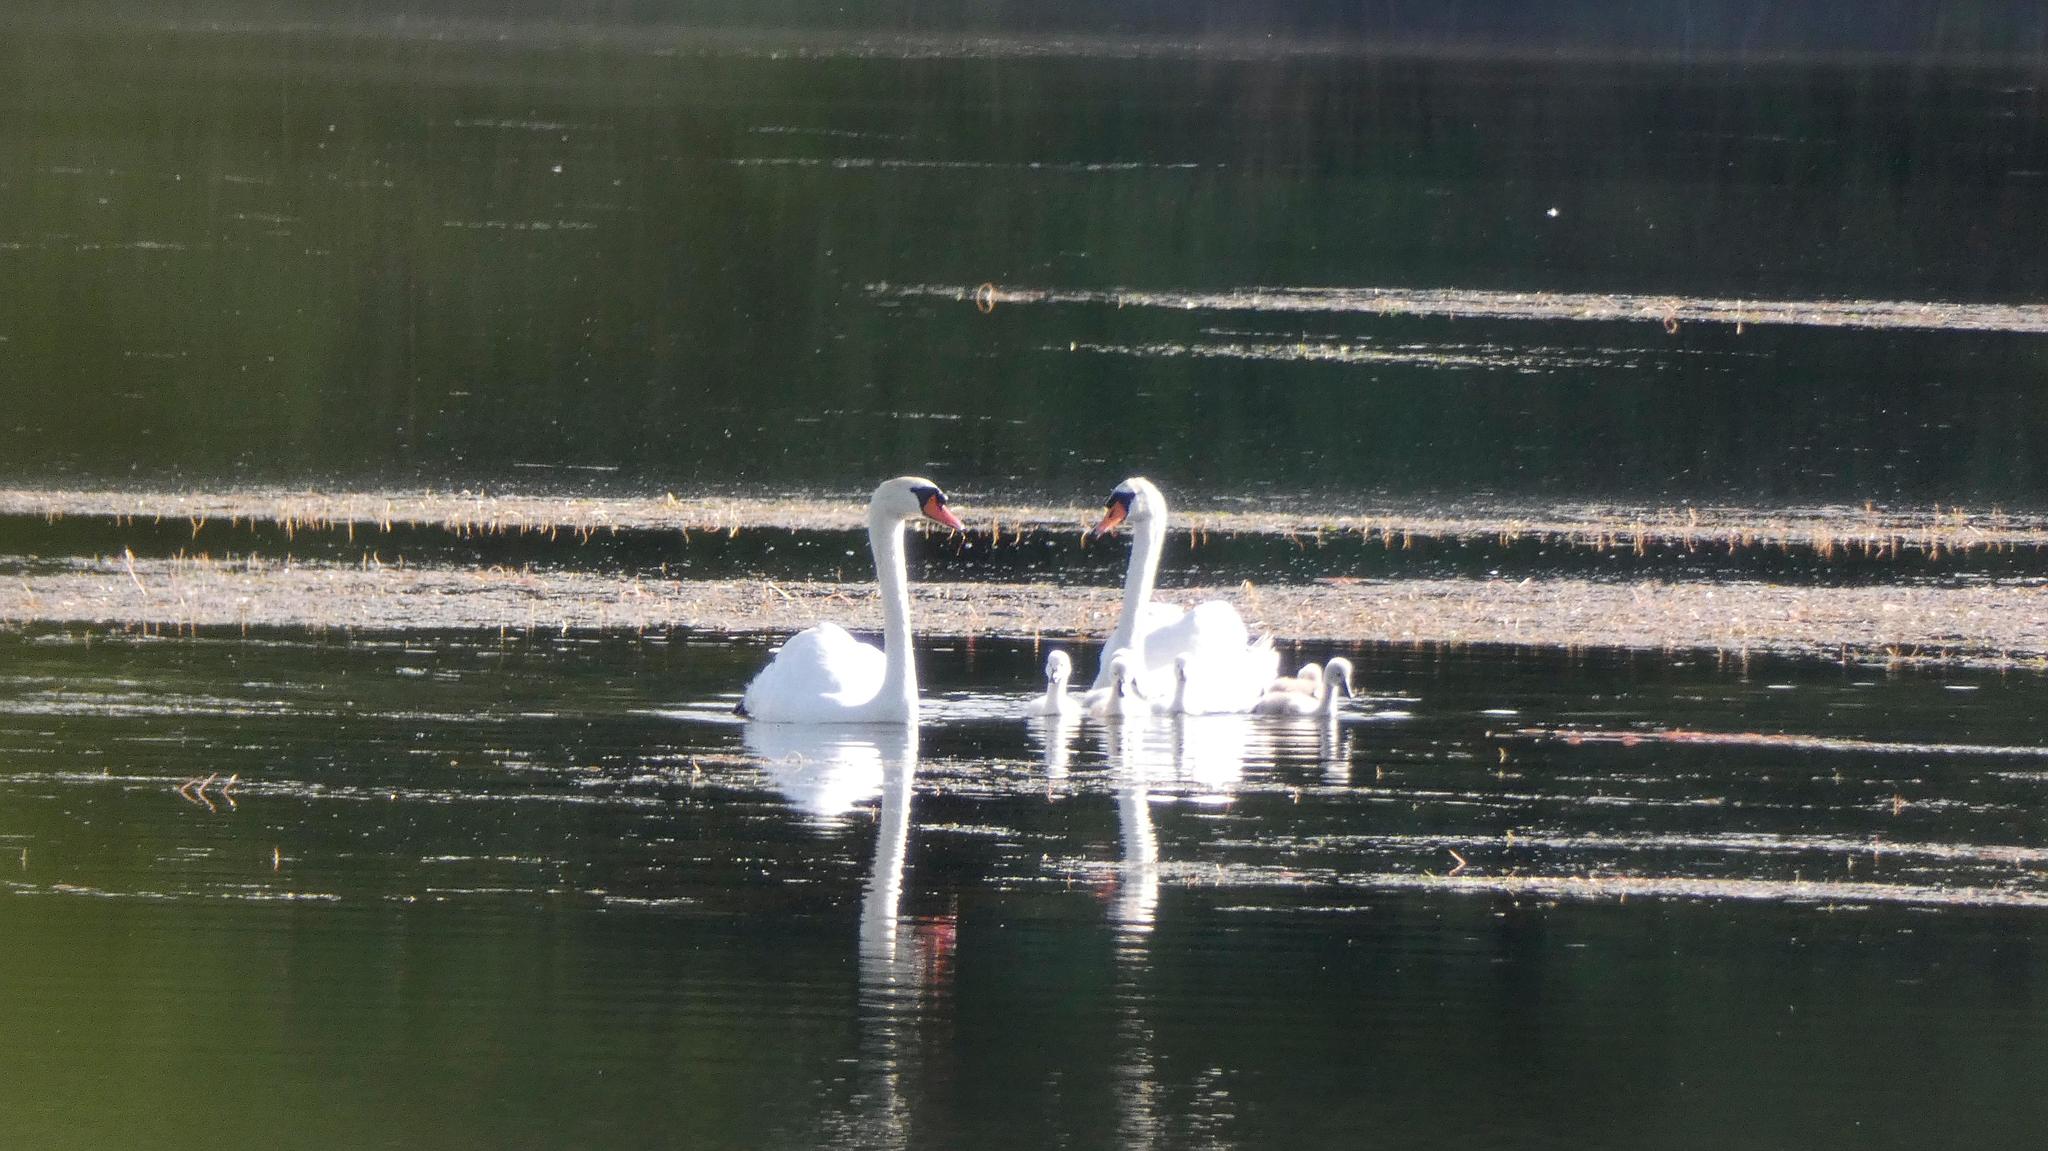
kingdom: Animalia
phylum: Chordata
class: Aves
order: Anseriformes
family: Anatidae
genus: Cygnus
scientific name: Cygnus olor
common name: Mute swan
